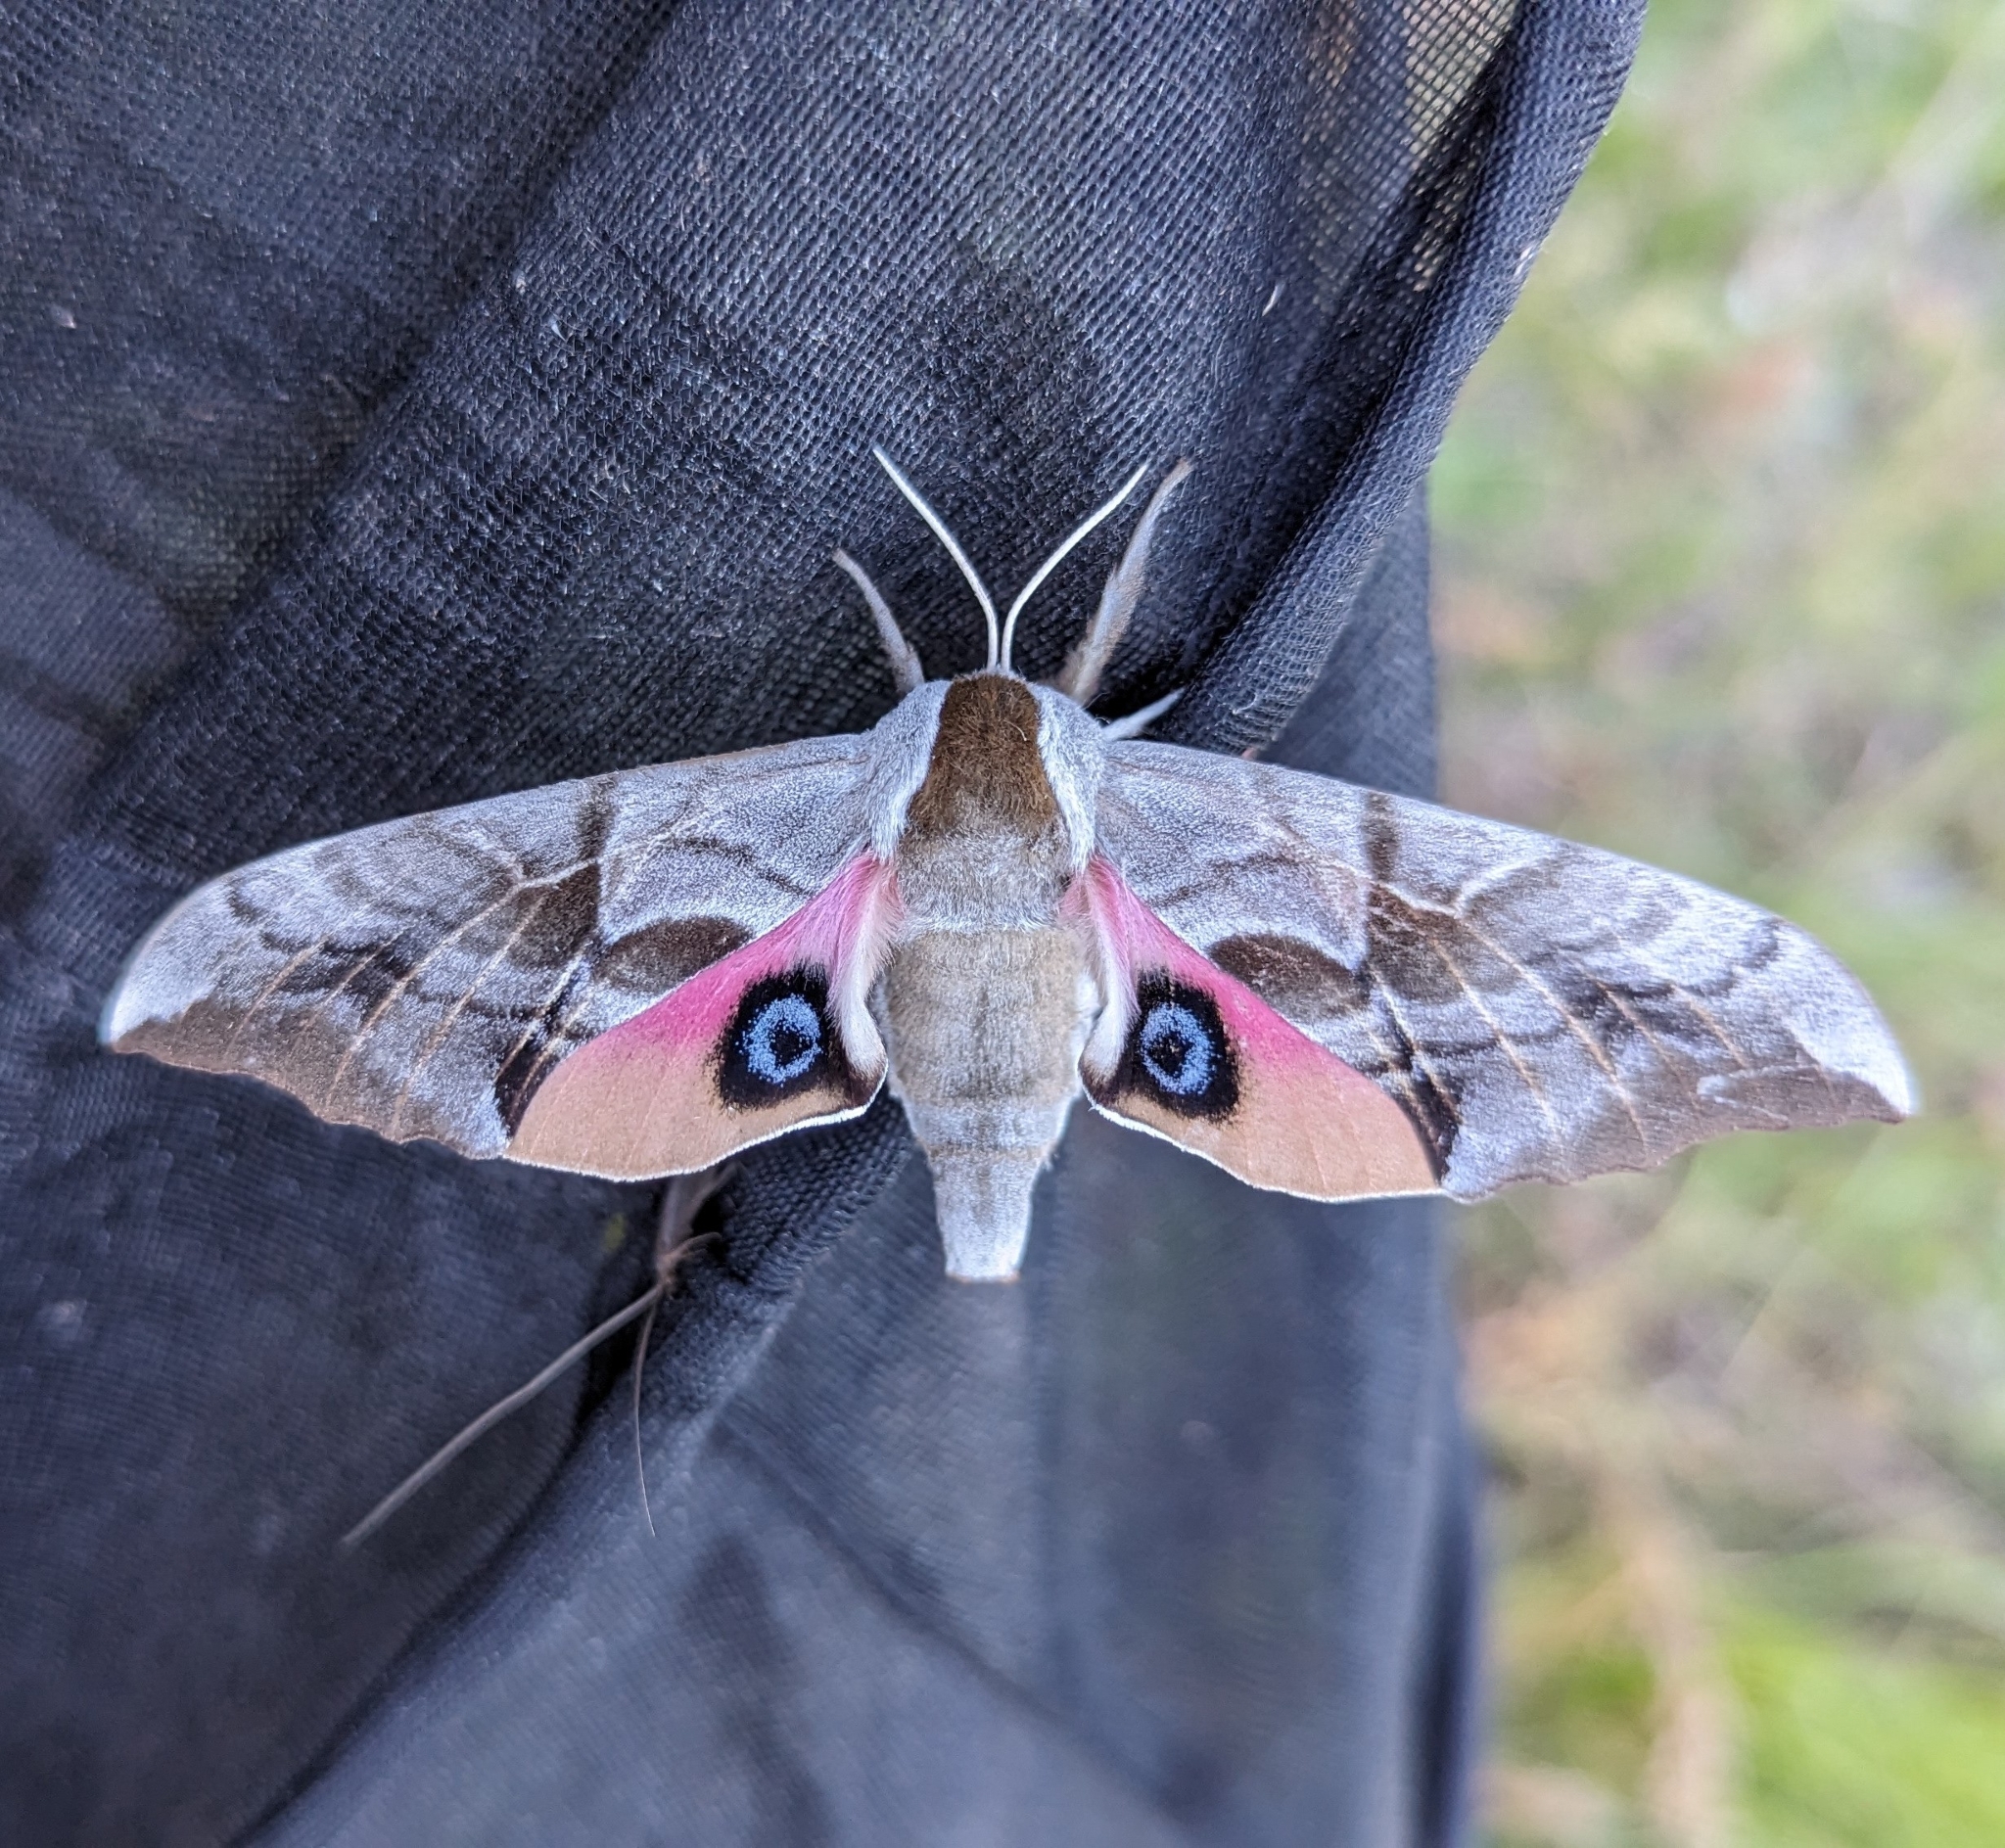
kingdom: Animalia
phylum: Arthropoda
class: Insecta
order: Lepidoptera
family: Sphingidae
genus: Smerinthus
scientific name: Smerinthus cerisyi
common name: Cerisy's sphinx moth
